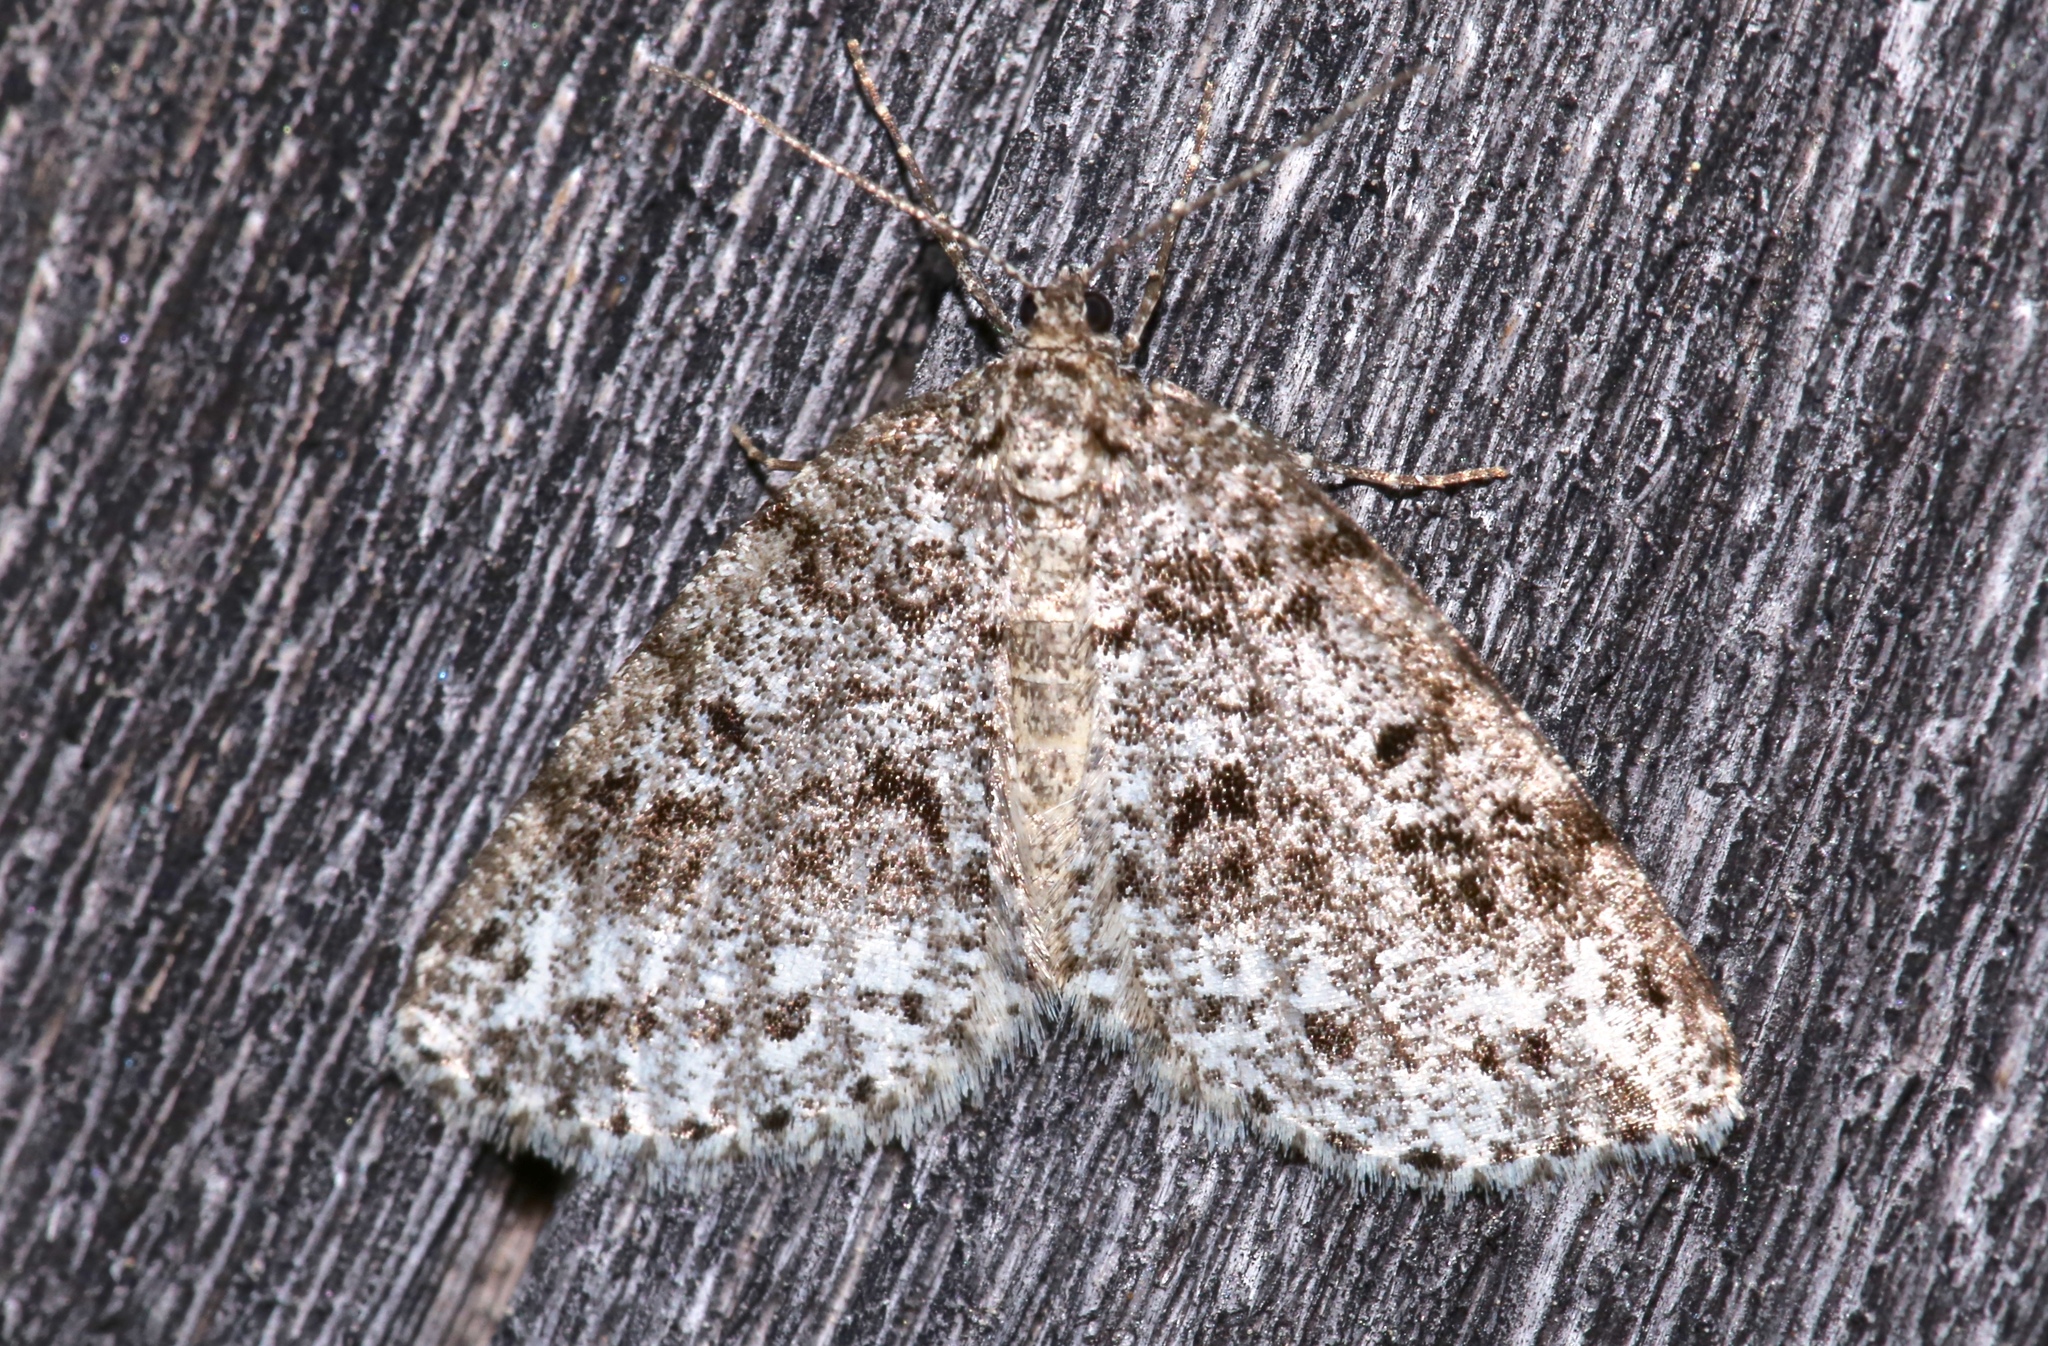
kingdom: Animalia
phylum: Arthropoda
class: Insecta
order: Lepidoptera
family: Geometridae
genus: Orthofidonia
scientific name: Orthofidonia exornata
